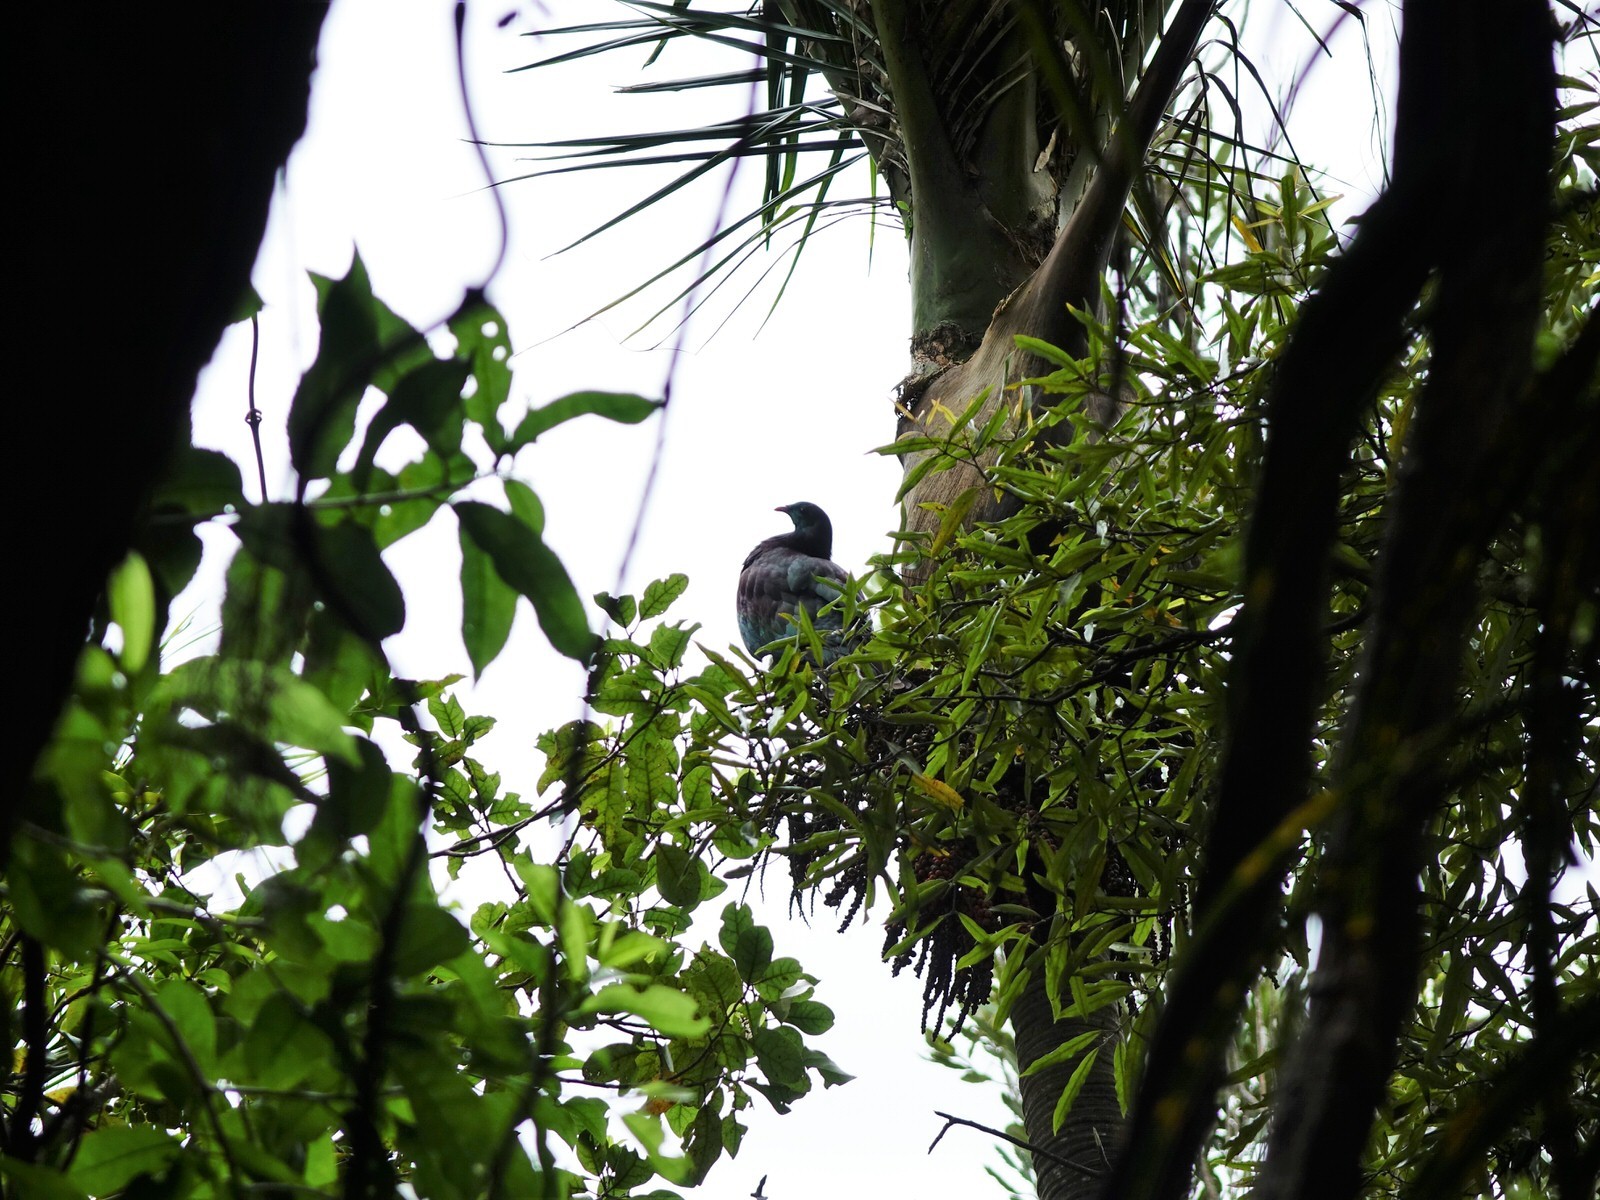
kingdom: Animalia
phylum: Chordata
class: Aves
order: Columbiformes
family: Columbidae
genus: Hemiphaga
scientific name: Hemiphaga novaeseelandiae
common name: New zealand pigeon
